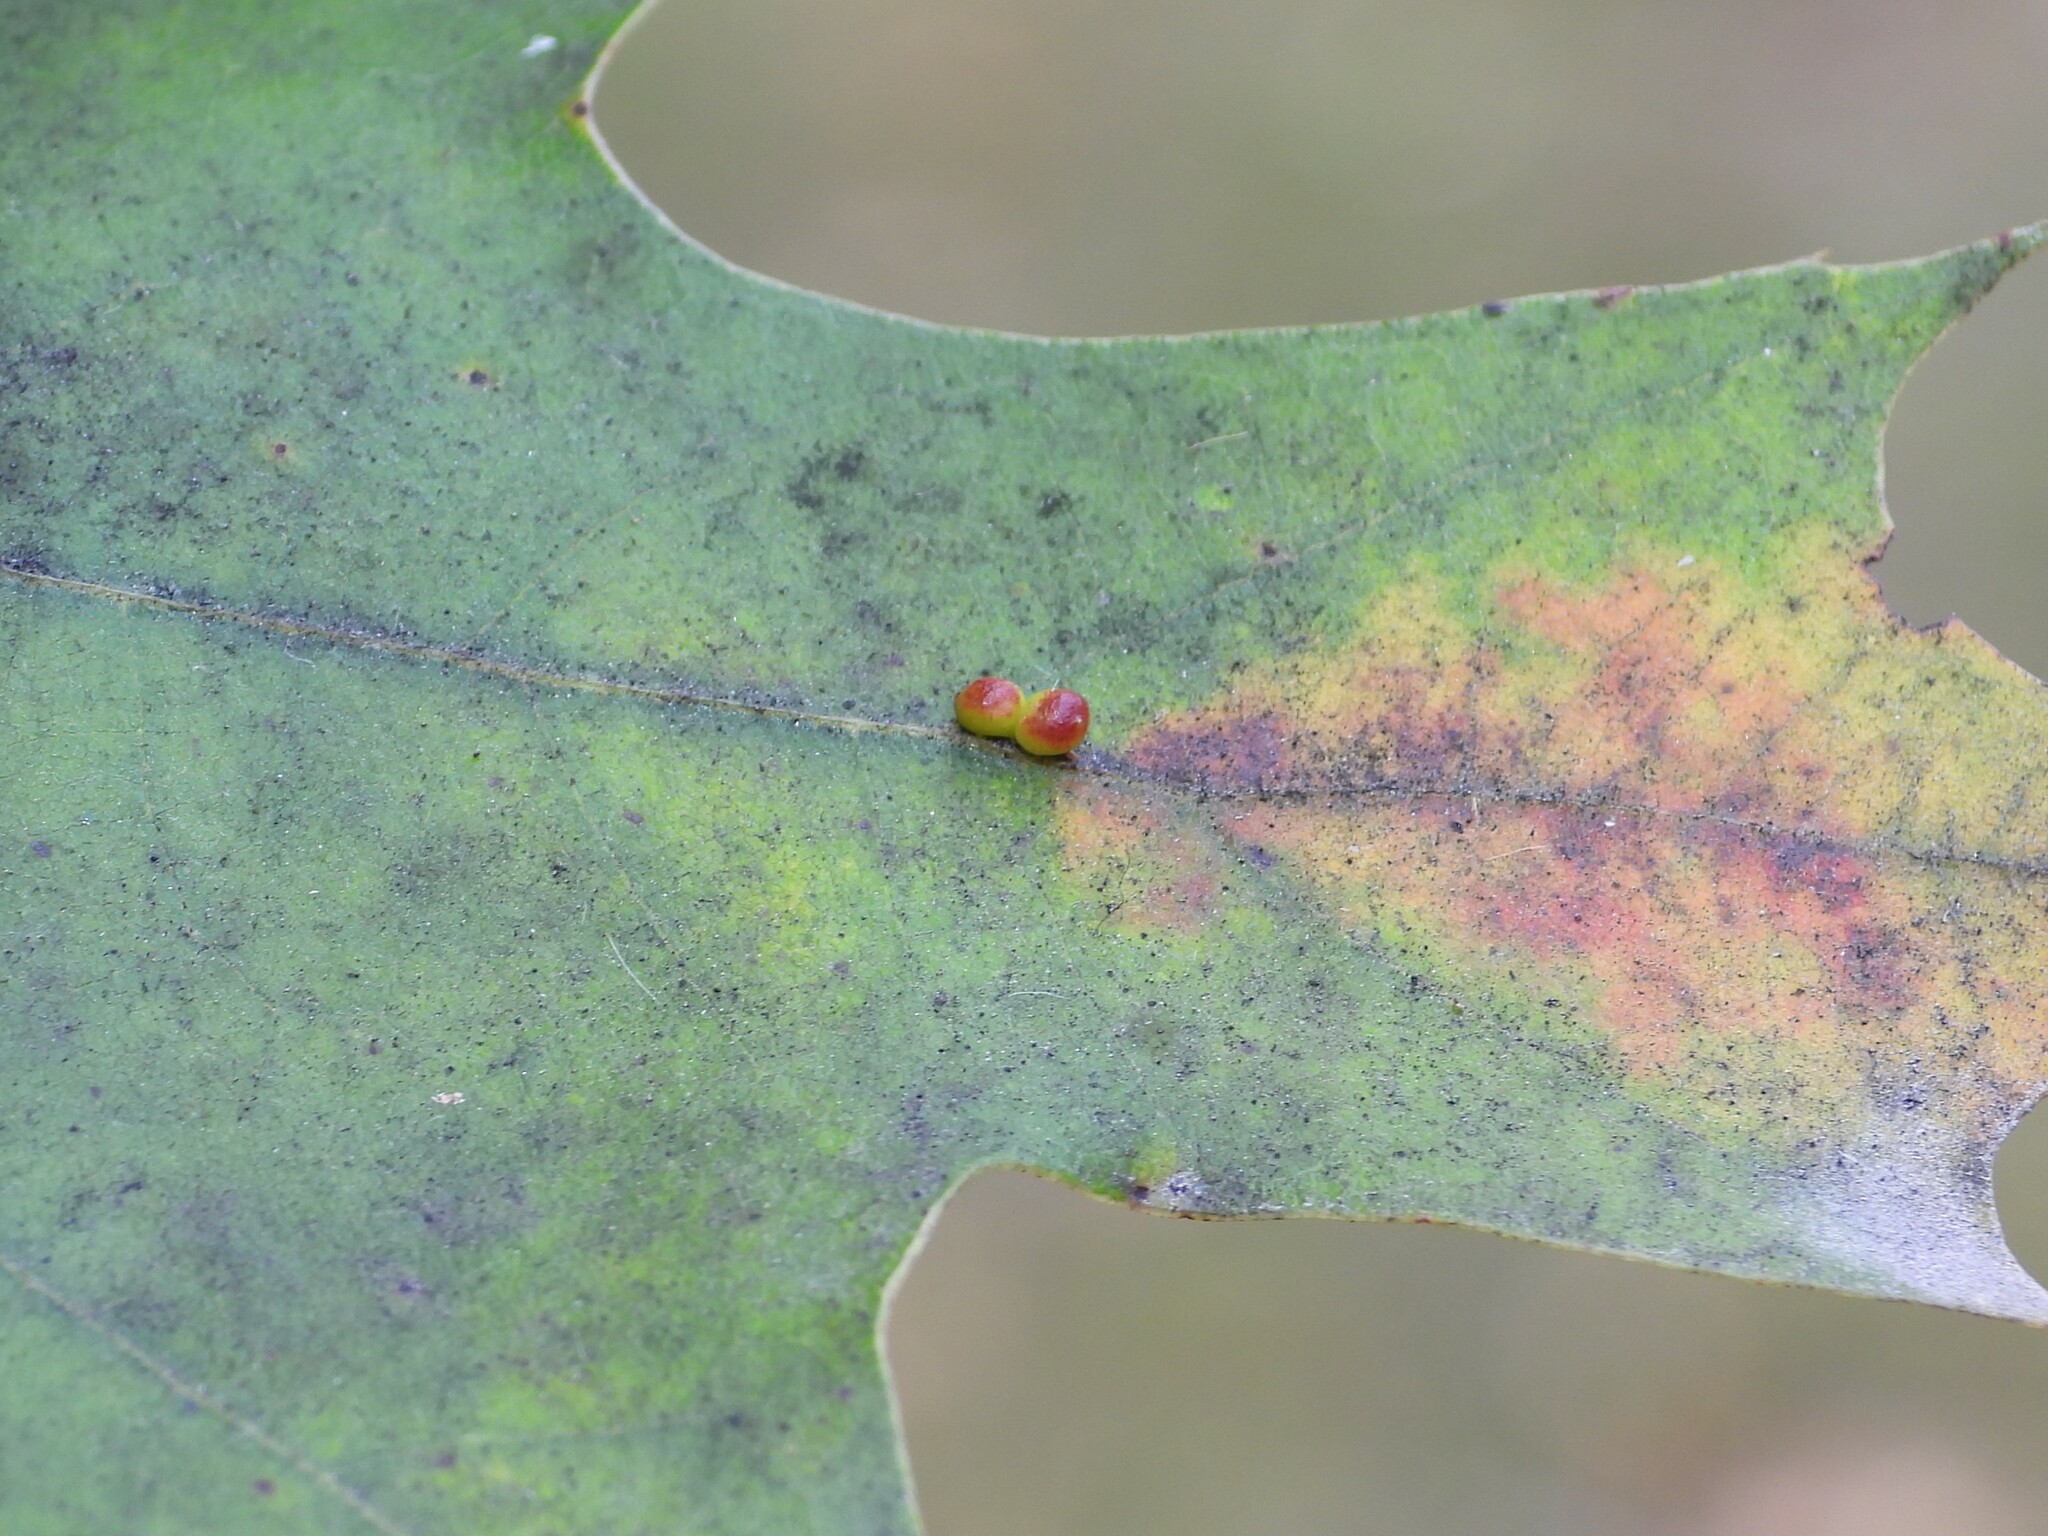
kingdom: Animalia
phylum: Arthropoda
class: Insecta
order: Hymenoptera
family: Cynipidae
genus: Zopheroteras
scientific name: Zopheroteras
